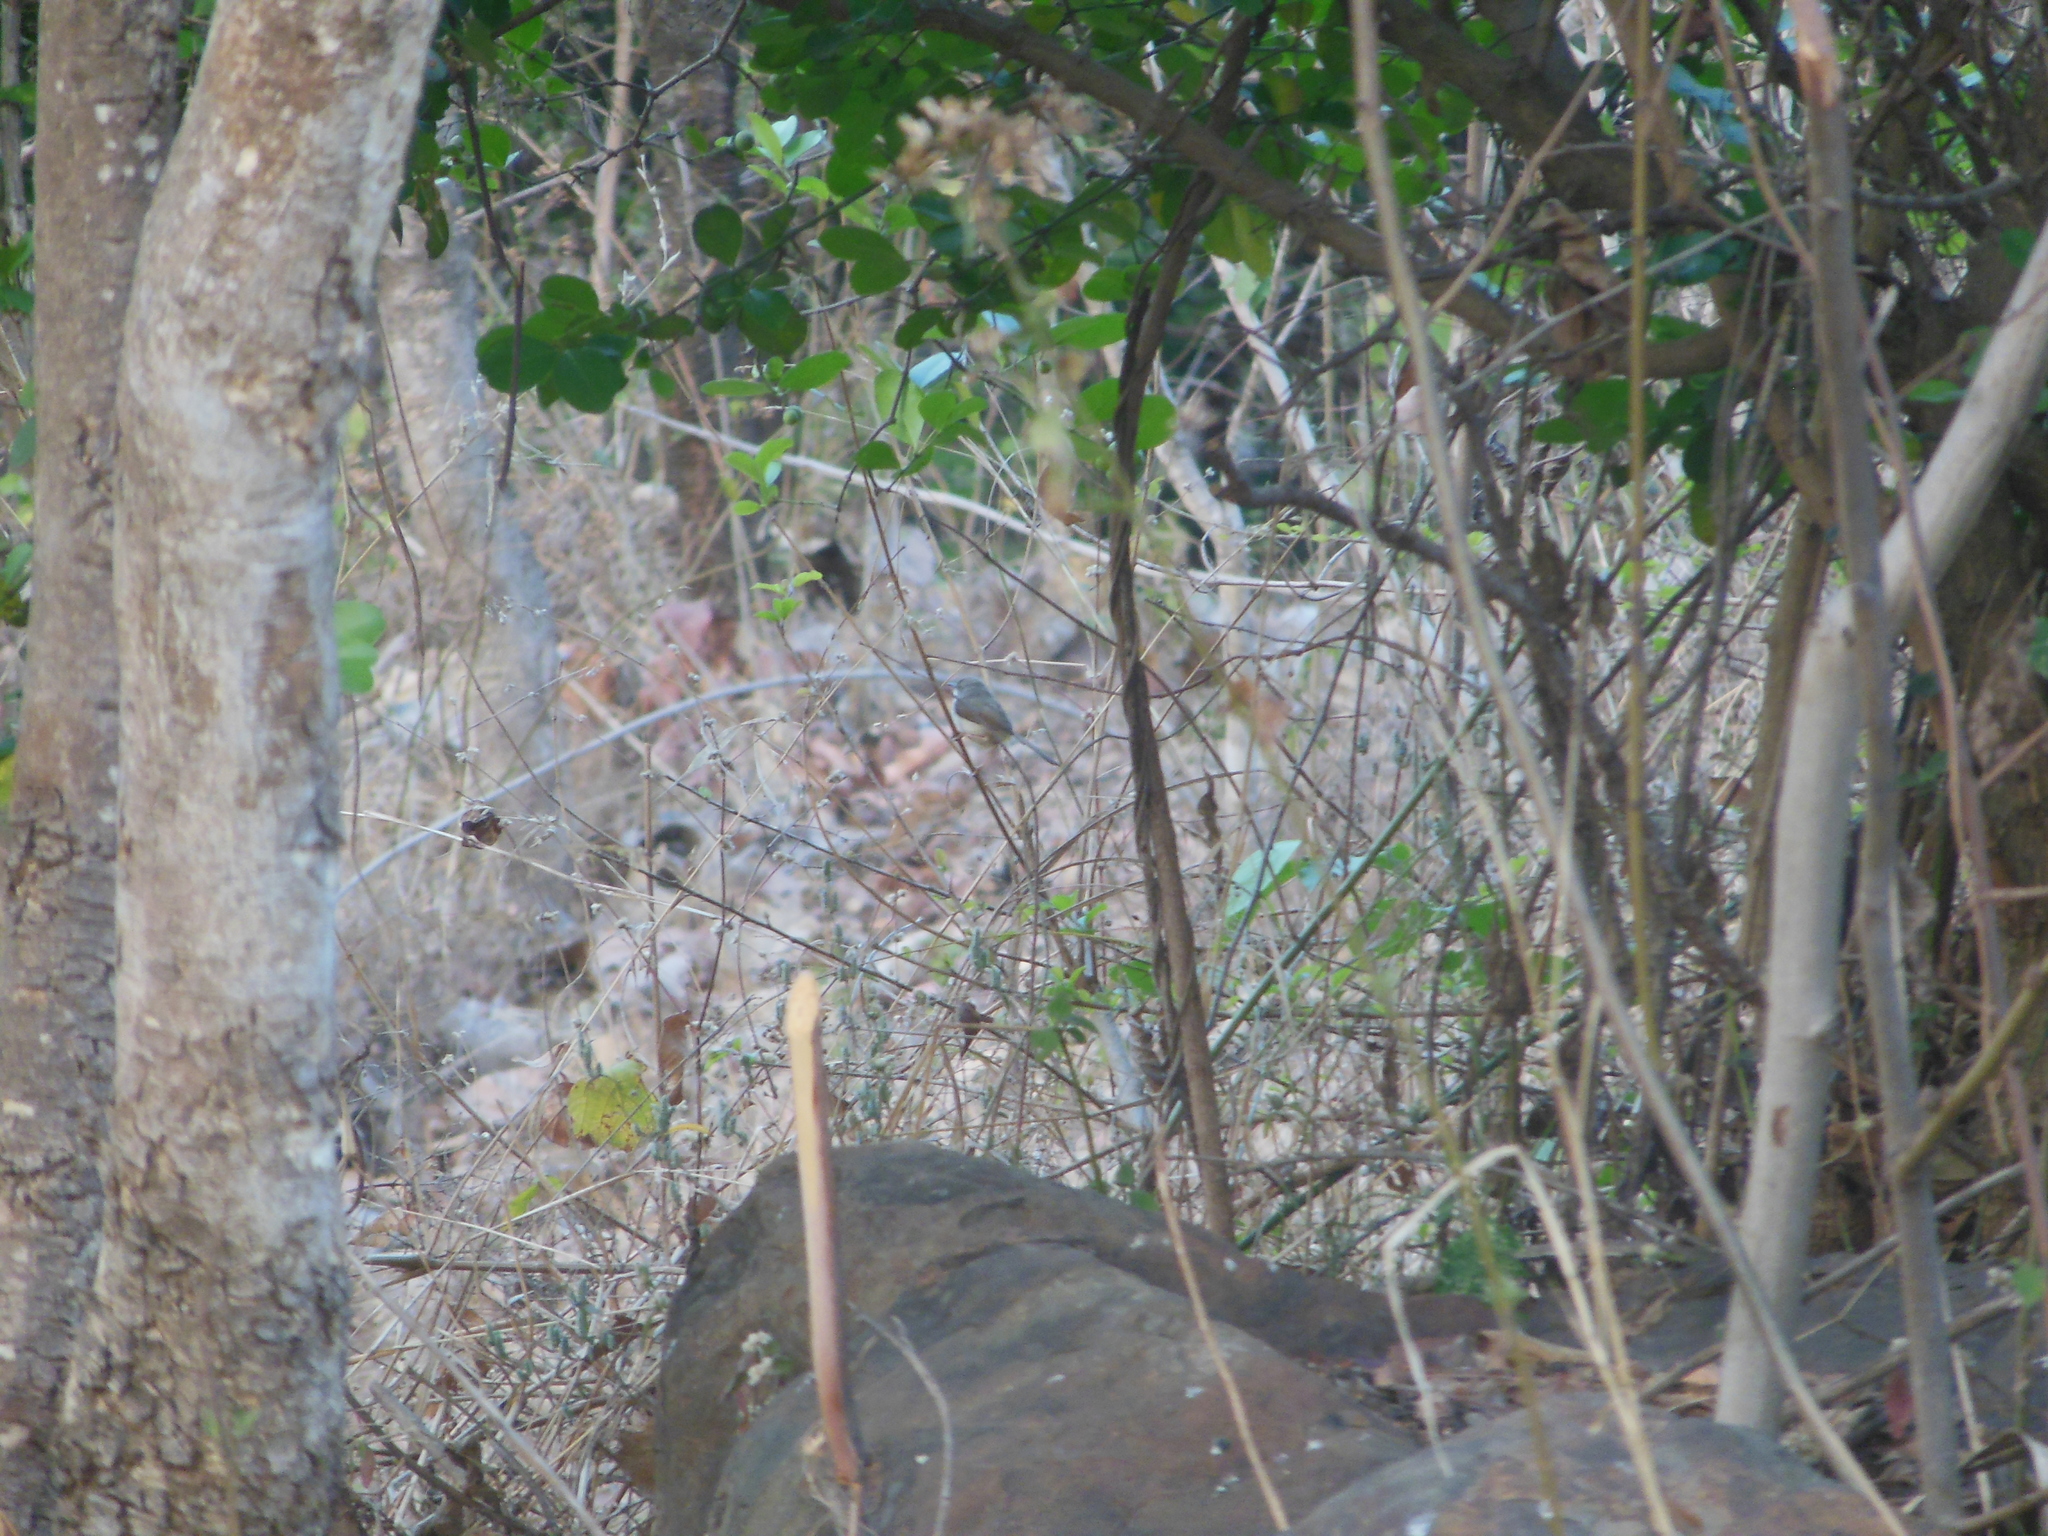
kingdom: Animalia
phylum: Chordata
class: Aves
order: Passeriformes
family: Cisticolidae
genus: Prinia
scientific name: Prinia hodgsonii
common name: Grey-breasted prinia
